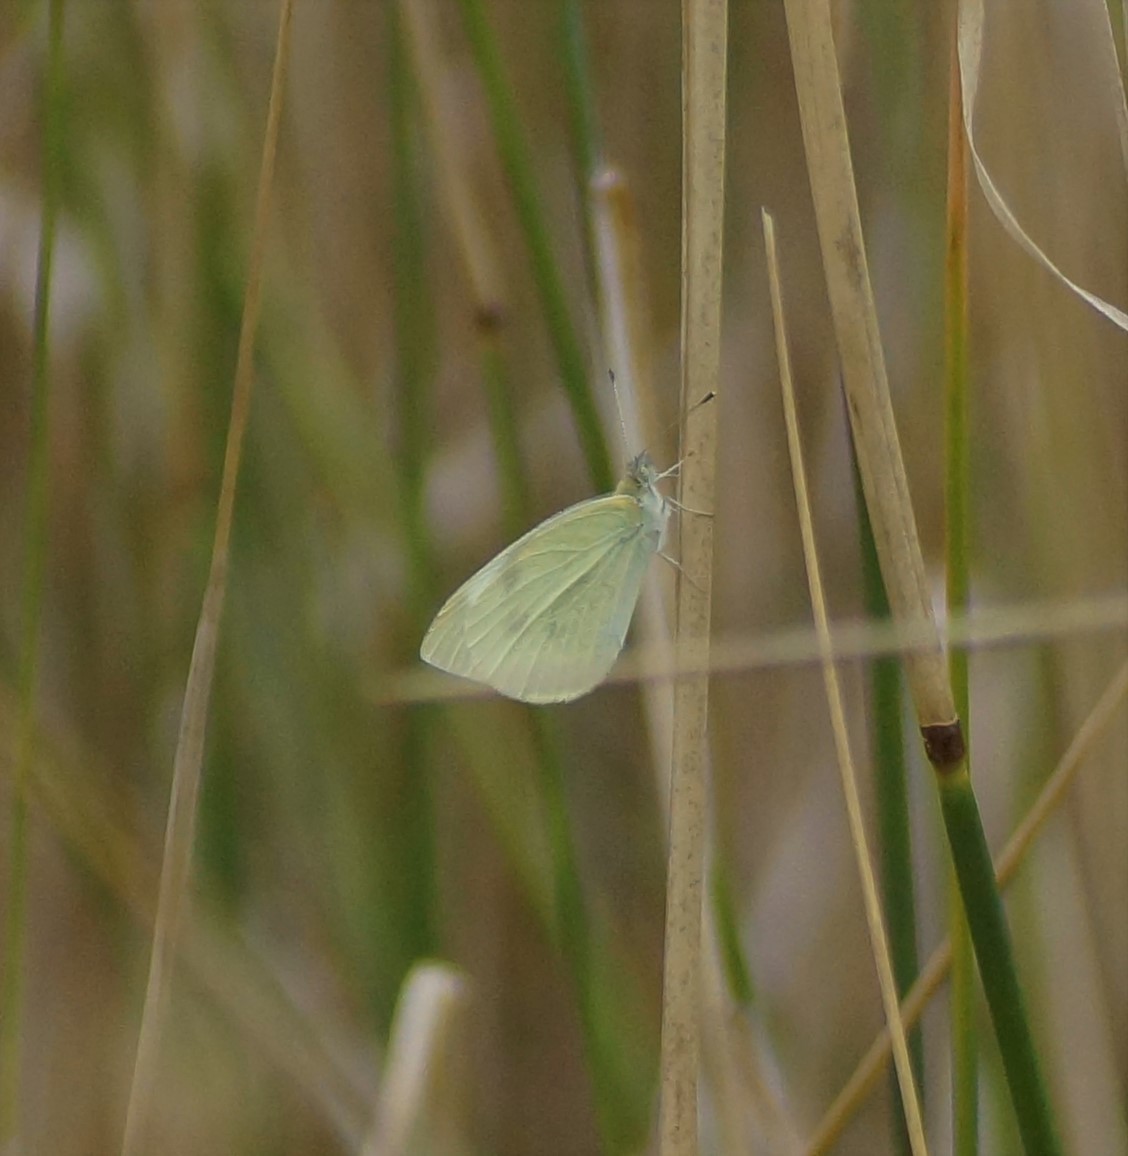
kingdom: Animalia
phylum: Arthropoda
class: Insecta
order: Lepidoptera
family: Pieridae
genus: Pieris
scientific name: Pieris rapae
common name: Small white
